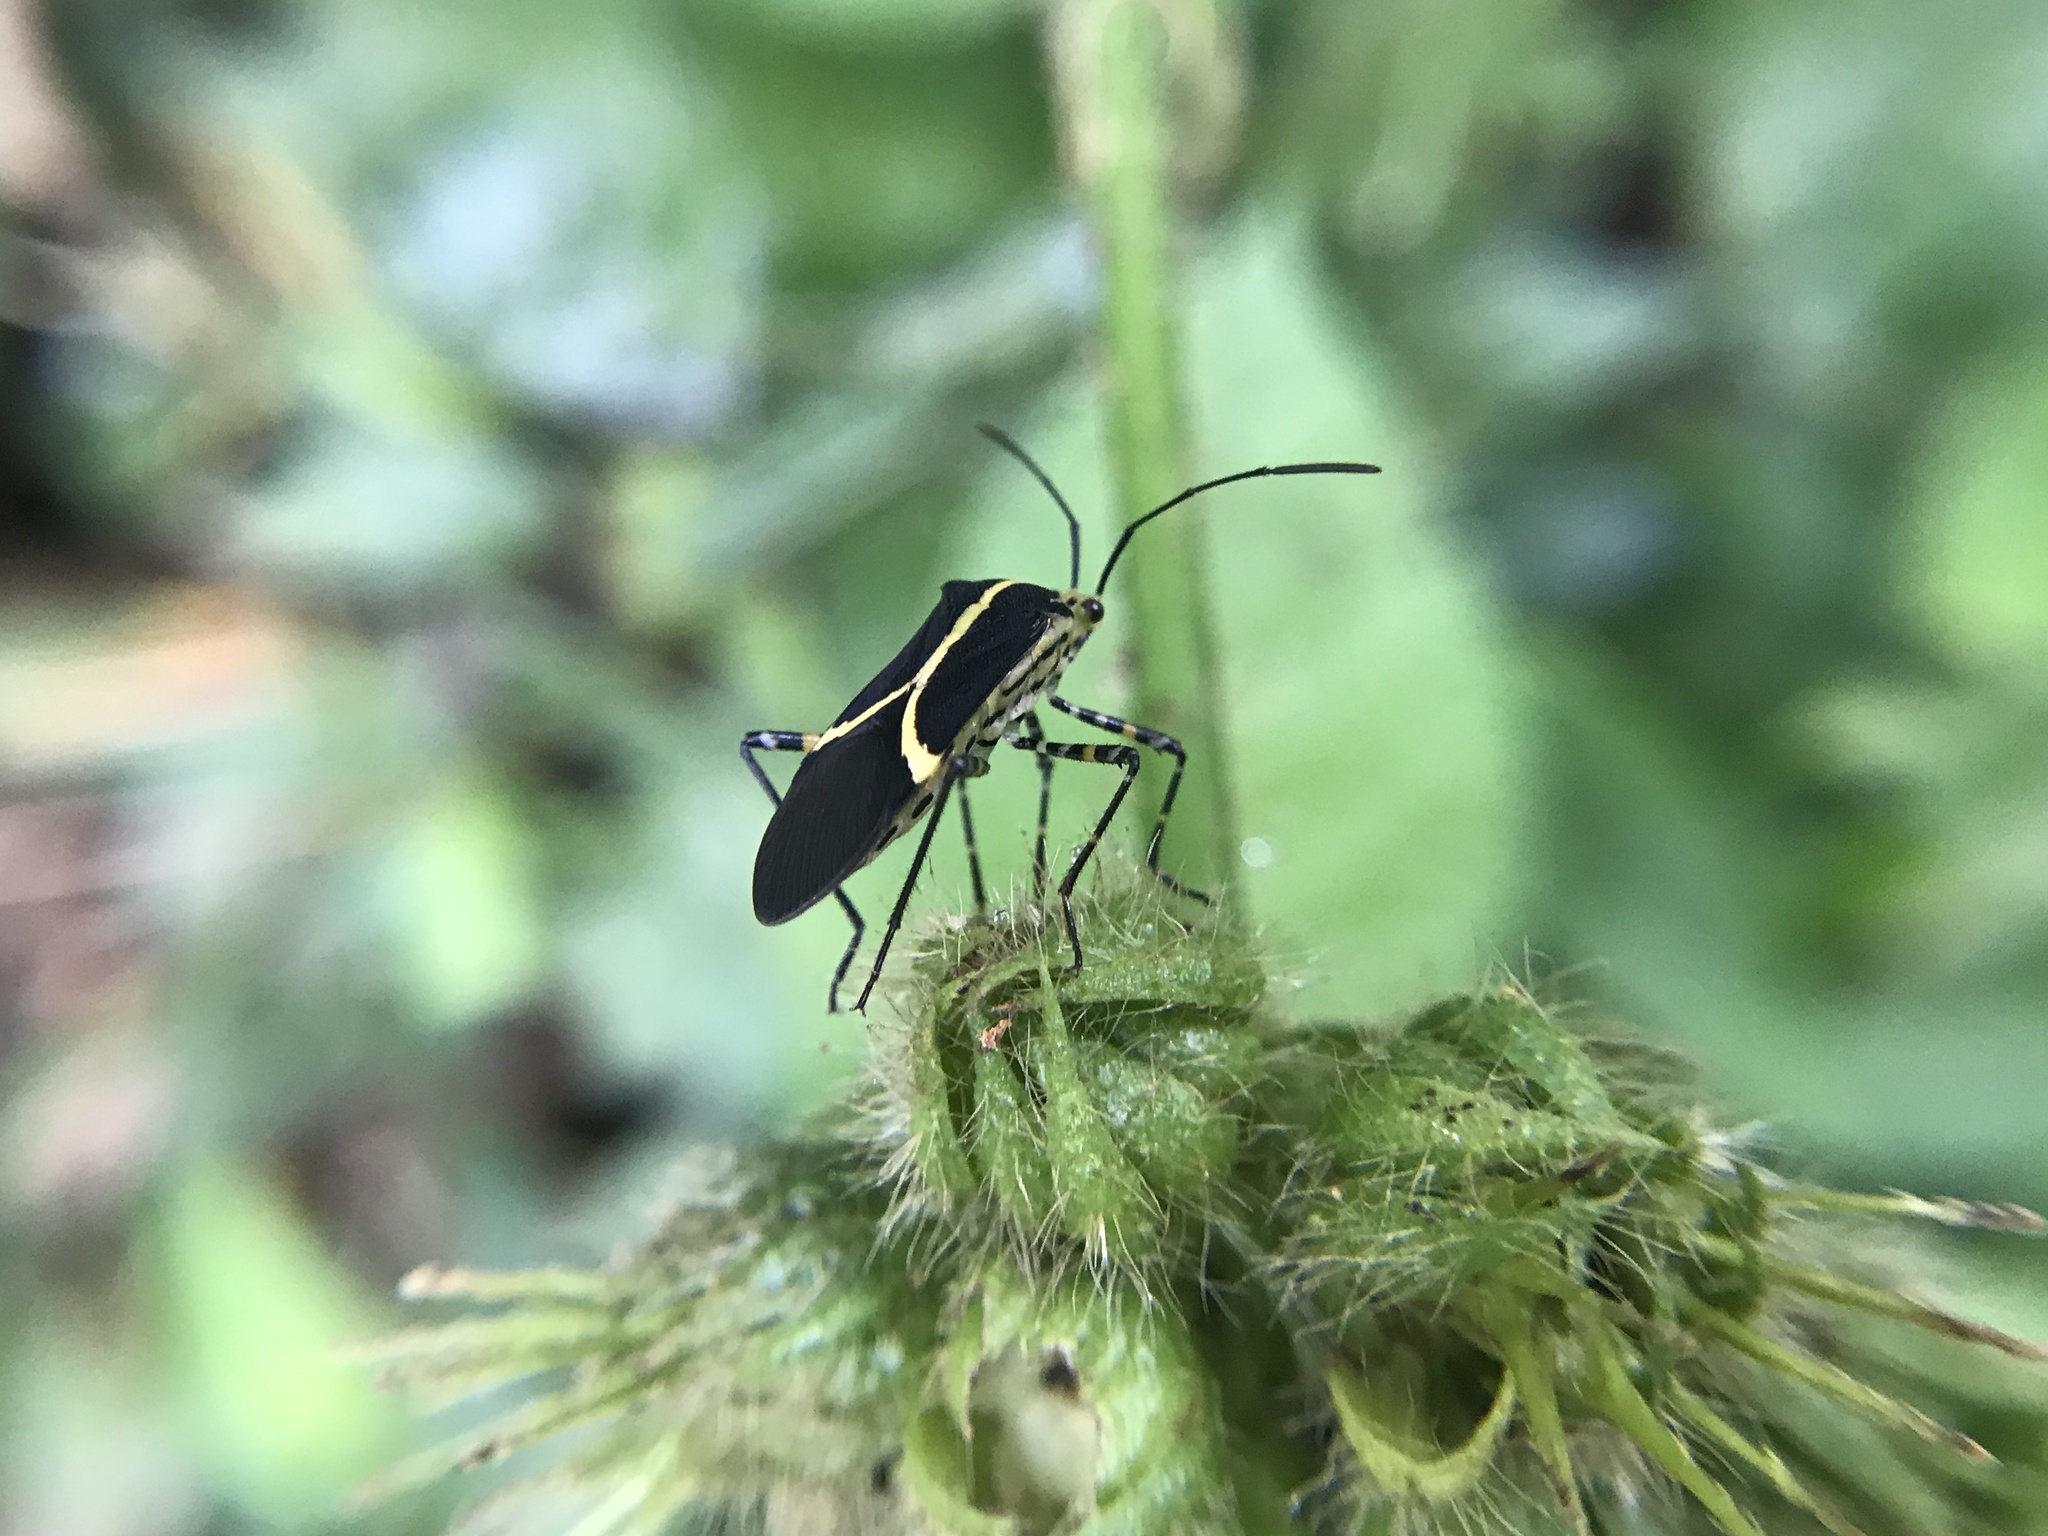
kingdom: Animalia
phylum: Arthropoda
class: Insecta
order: Hemiptera
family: Coreidae
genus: Hypselonotus
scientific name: Hypselonotus linea
